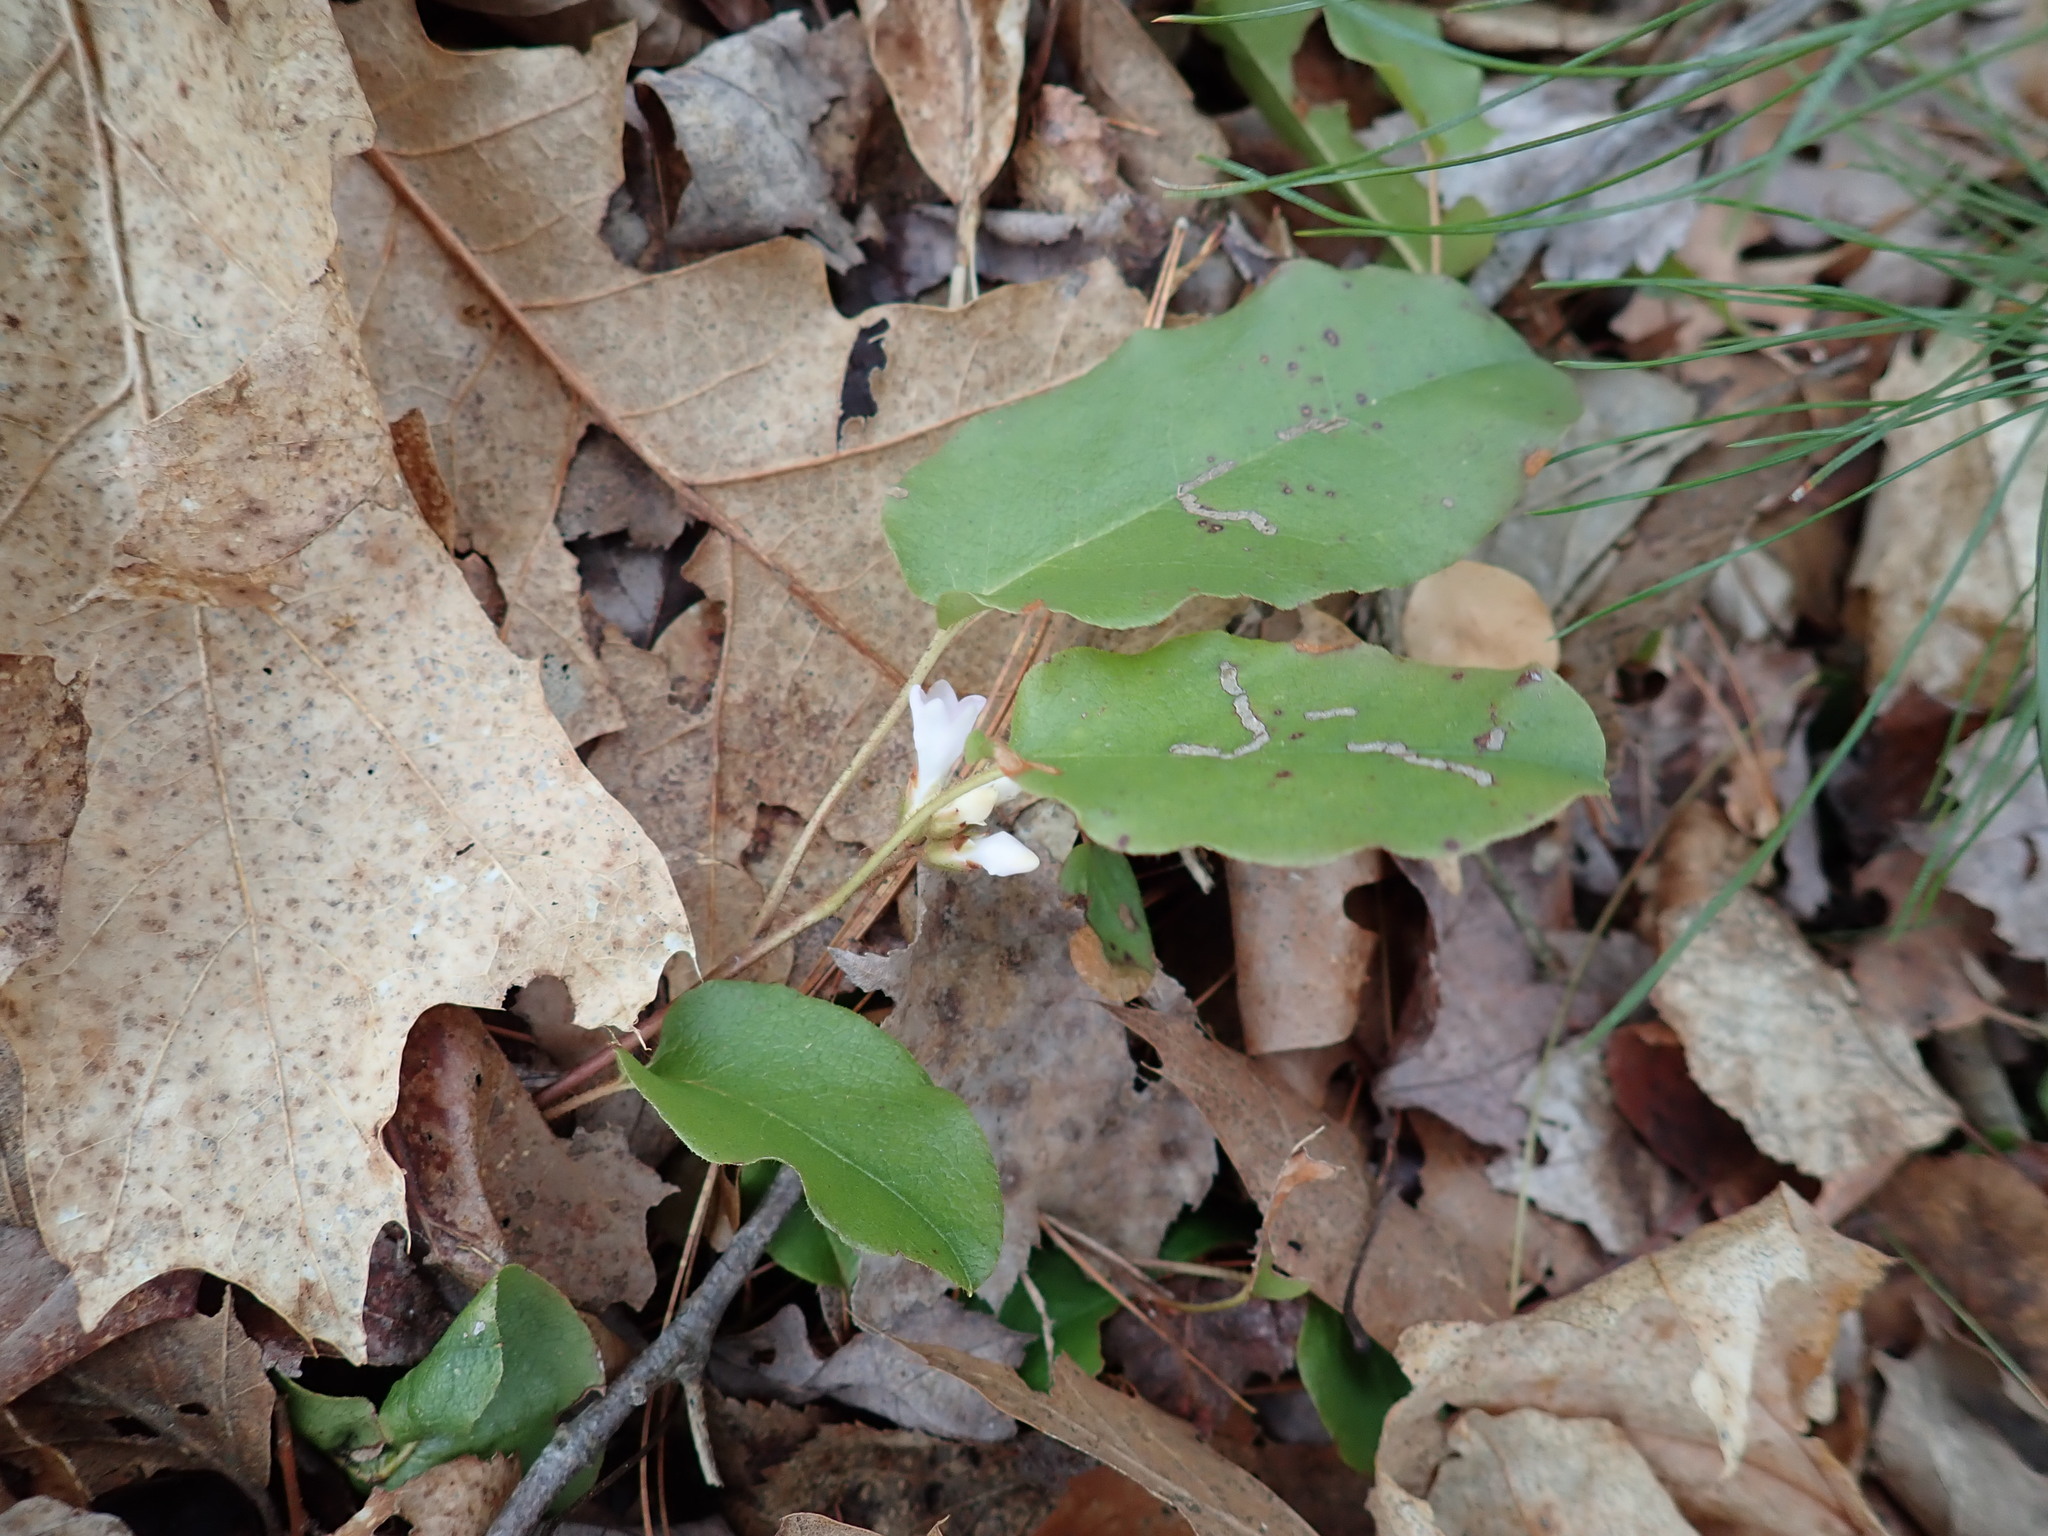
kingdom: Plantae
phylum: Tracheophyta
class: Magnoliopsida
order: Ericales
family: Ericaceae
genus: Epigaea
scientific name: Epigaea repens
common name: Gravelroot
